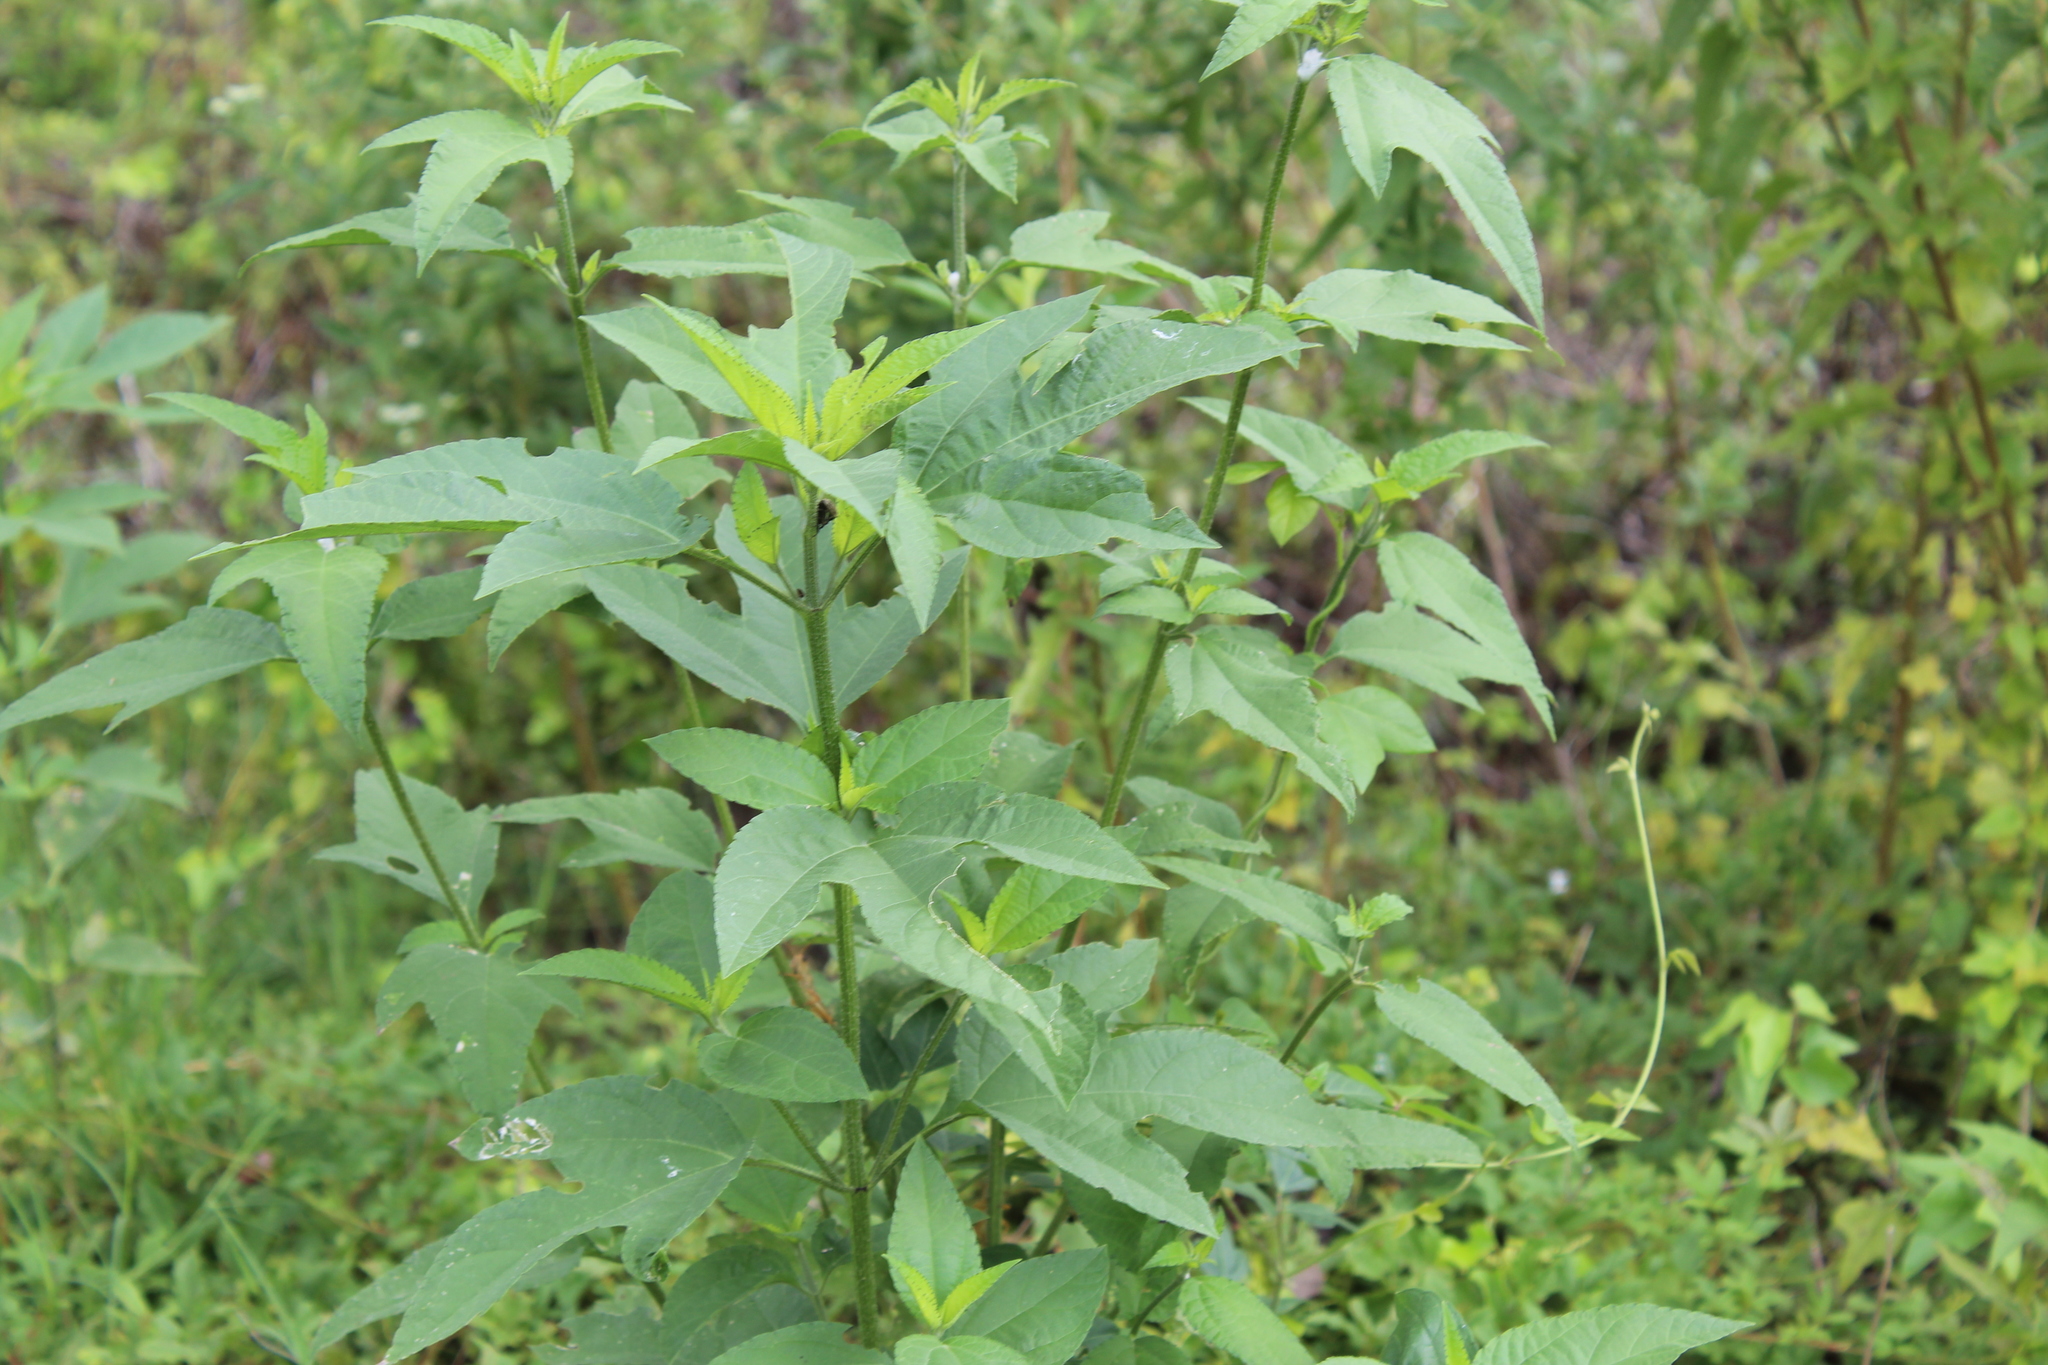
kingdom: Plantae
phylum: Tracheophyta
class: Magnoliopsida
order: Asterales
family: Asteraceae
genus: Ambrosia
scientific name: Ambrosia trifida
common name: Giant ragweed
